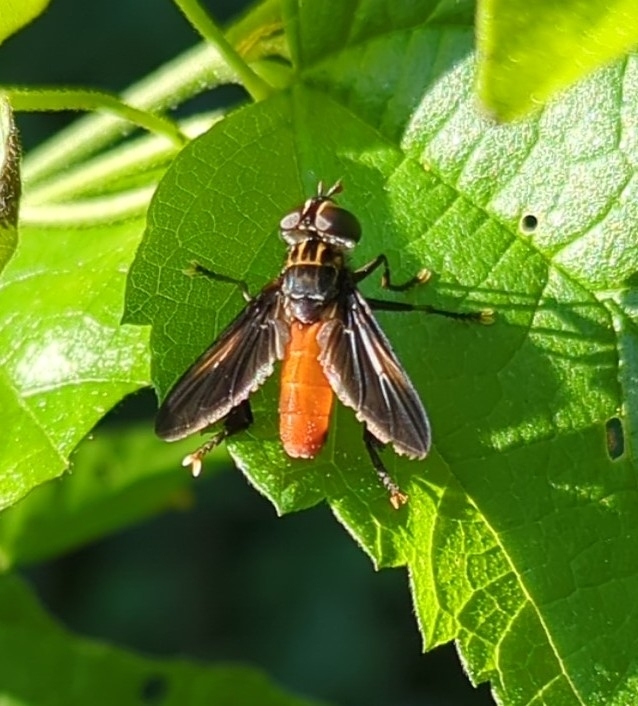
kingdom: Animalia
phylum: Arthropoda
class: Insecta
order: Diptera
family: Tachinidae
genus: Trichopoda
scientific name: Trichopoda pennipes
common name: Tachinid fly
